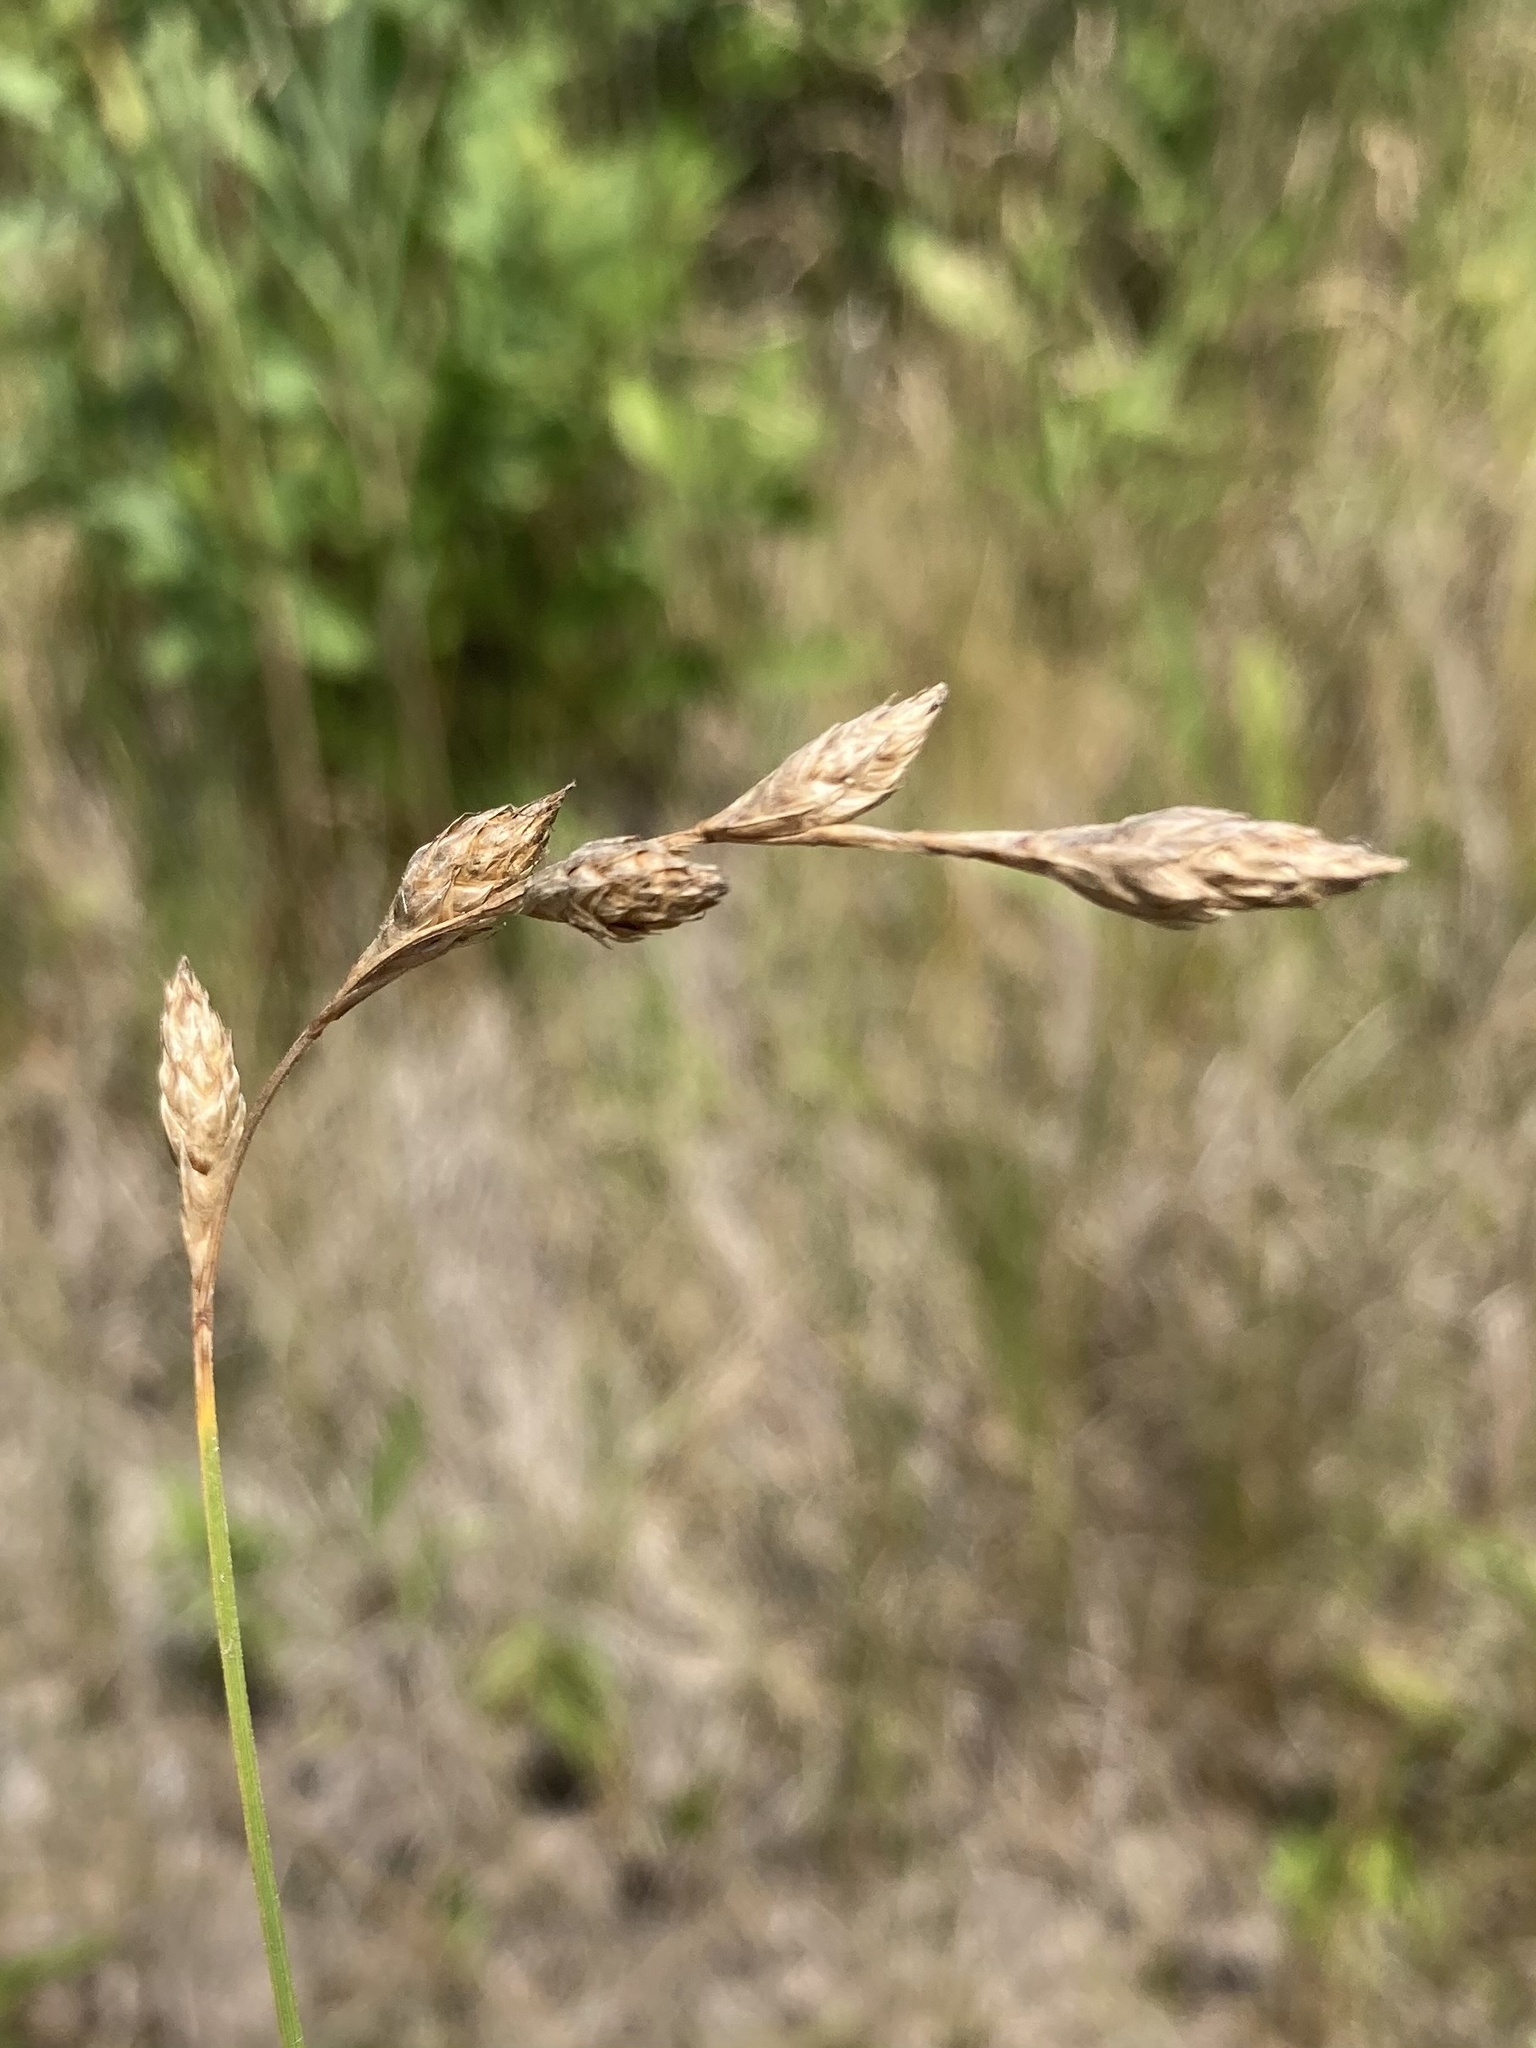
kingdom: Plantae
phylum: Tracheophyta
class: Liliopsida
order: Poales
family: Cyperaceae
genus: Carex
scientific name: Carex silicea
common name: Beach sedge
